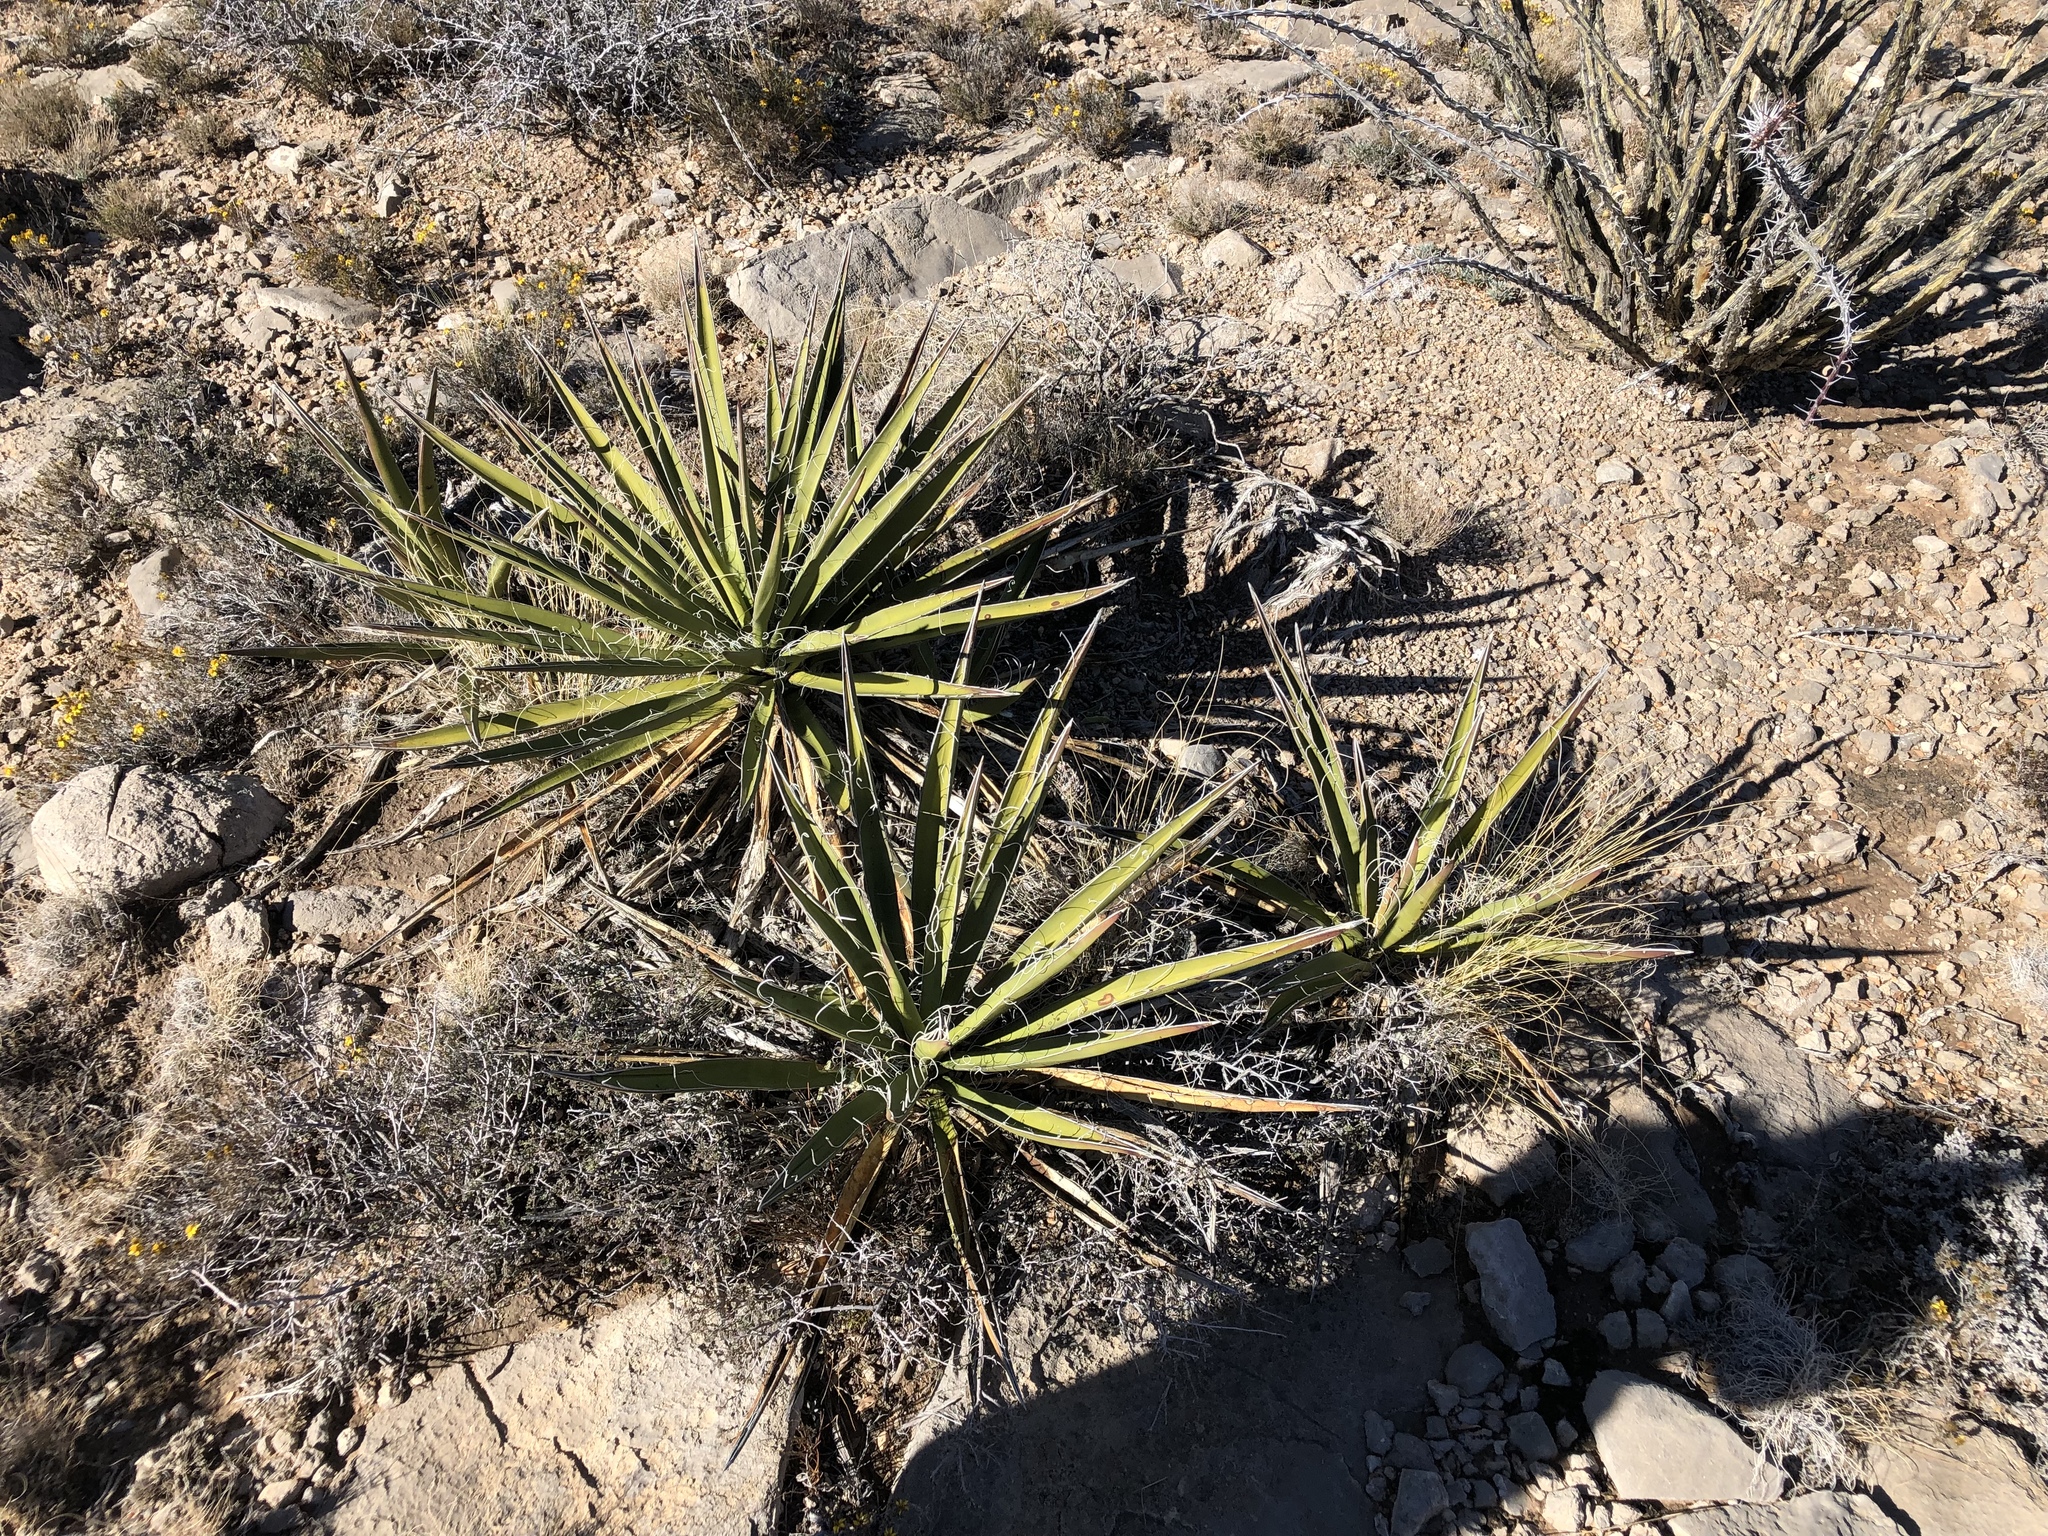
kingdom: Plantae
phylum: Tracheophyta
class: Liliopsida
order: Asparagales
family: Asparagaceae
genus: Yucca
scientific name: Yucca baccata
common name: Banana yucca
